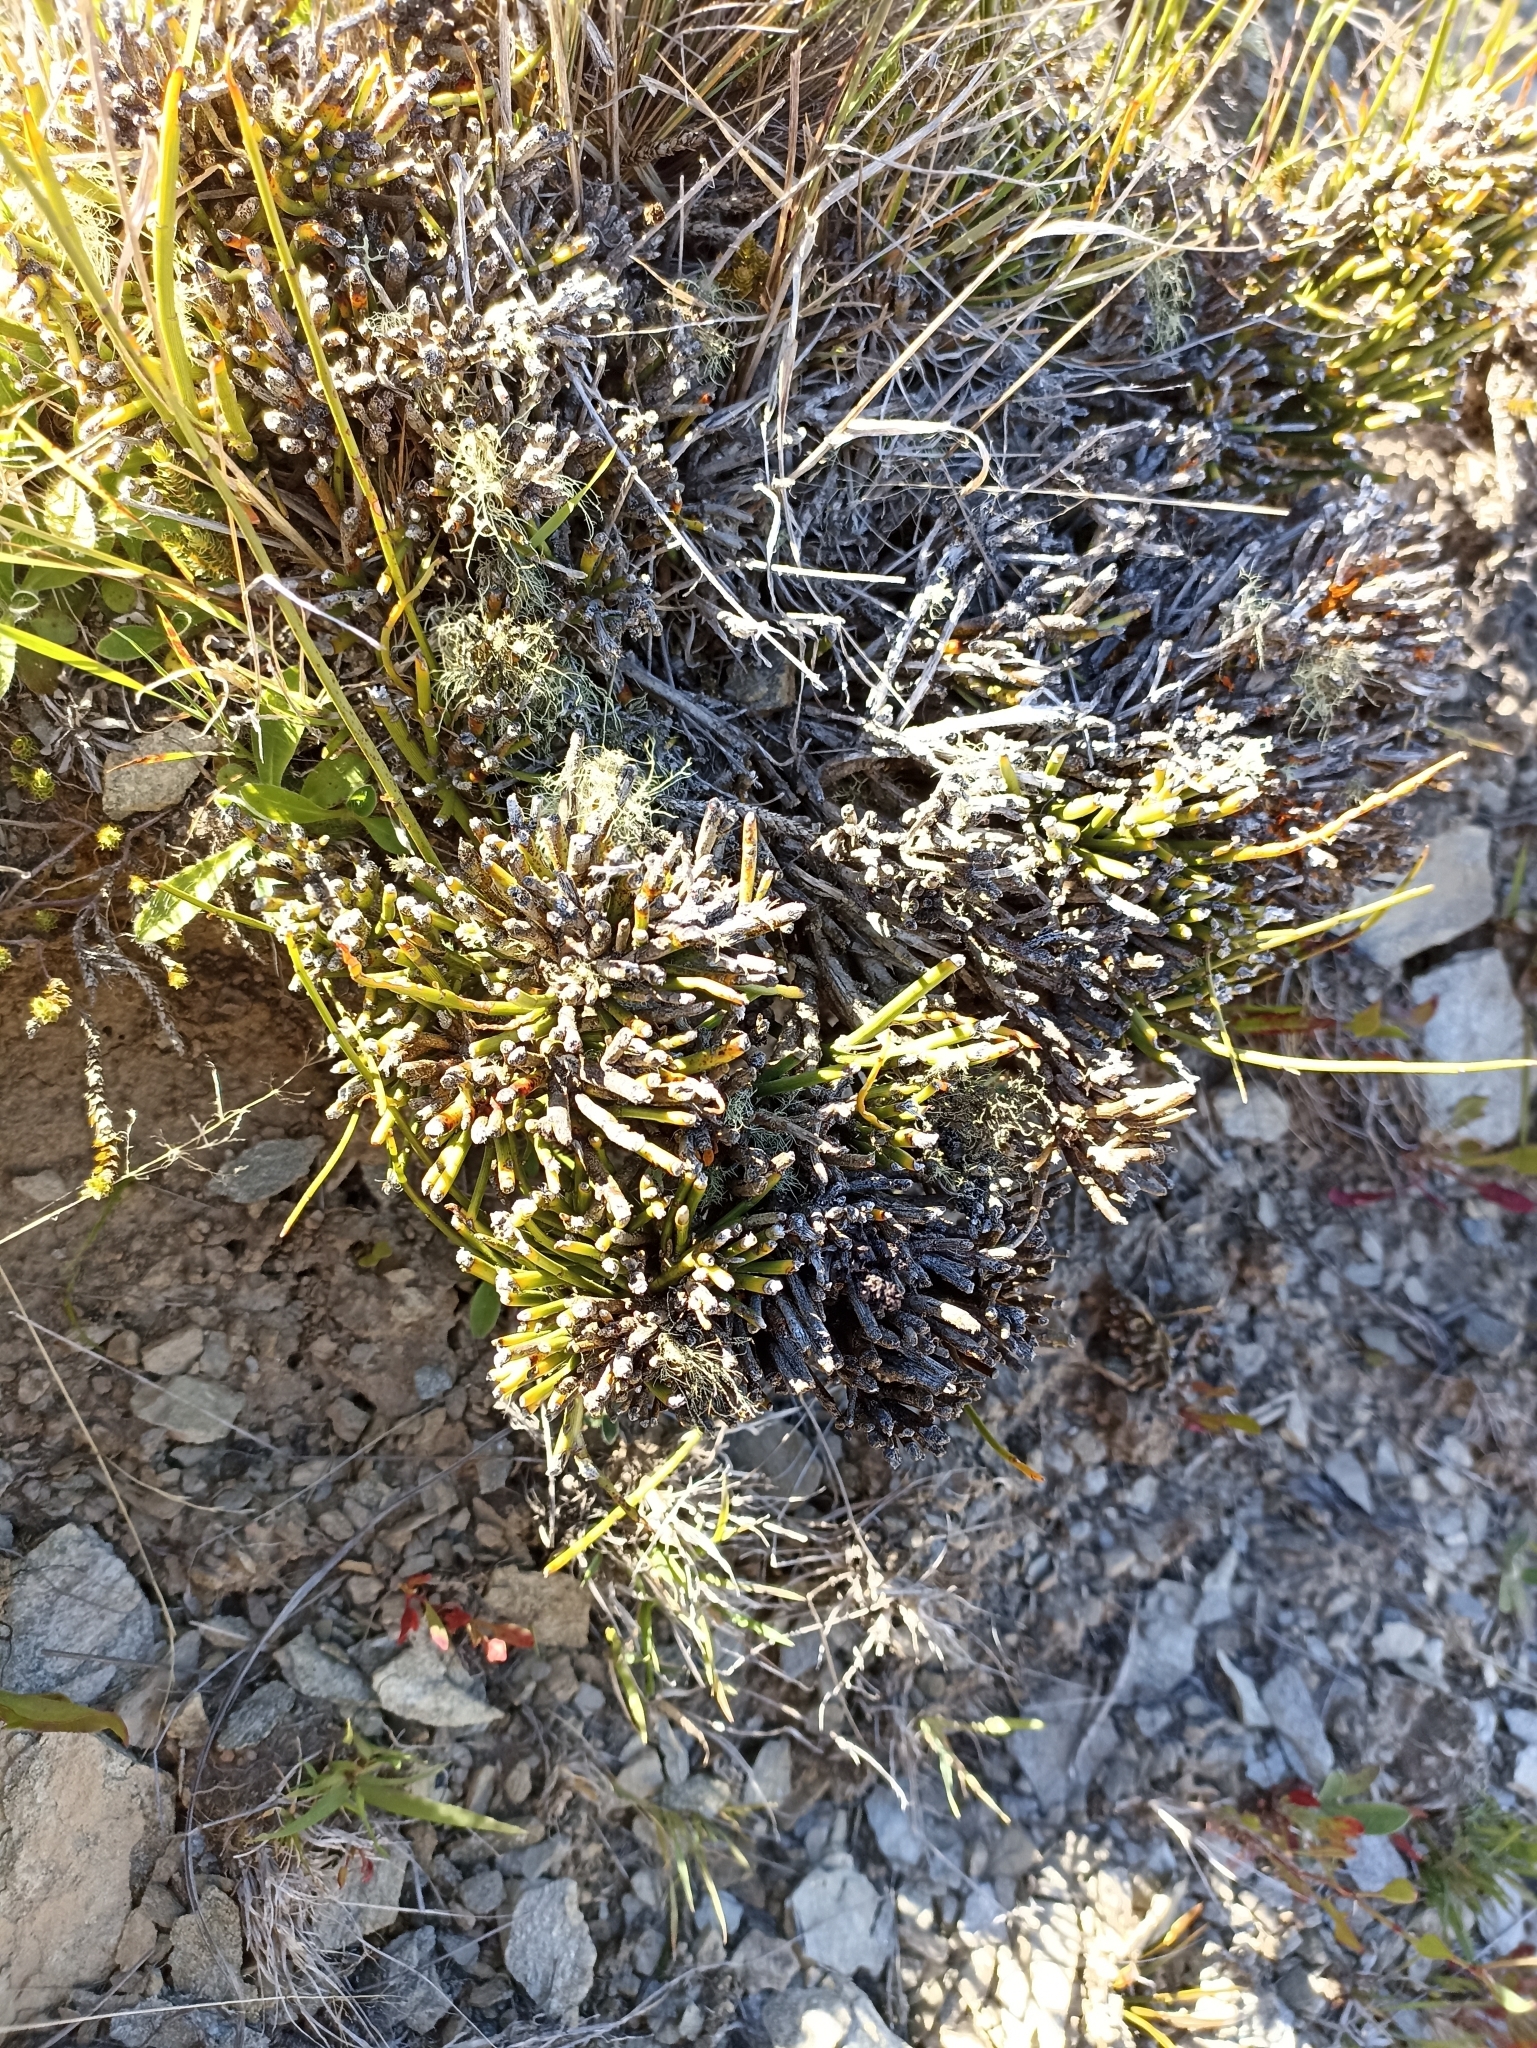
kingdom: Plantae
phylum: Tracheophyta
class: Magnoliopsida
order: Fabales
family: Fabaceae
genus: Carmichaelia
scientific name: Carmichaelia petriei
